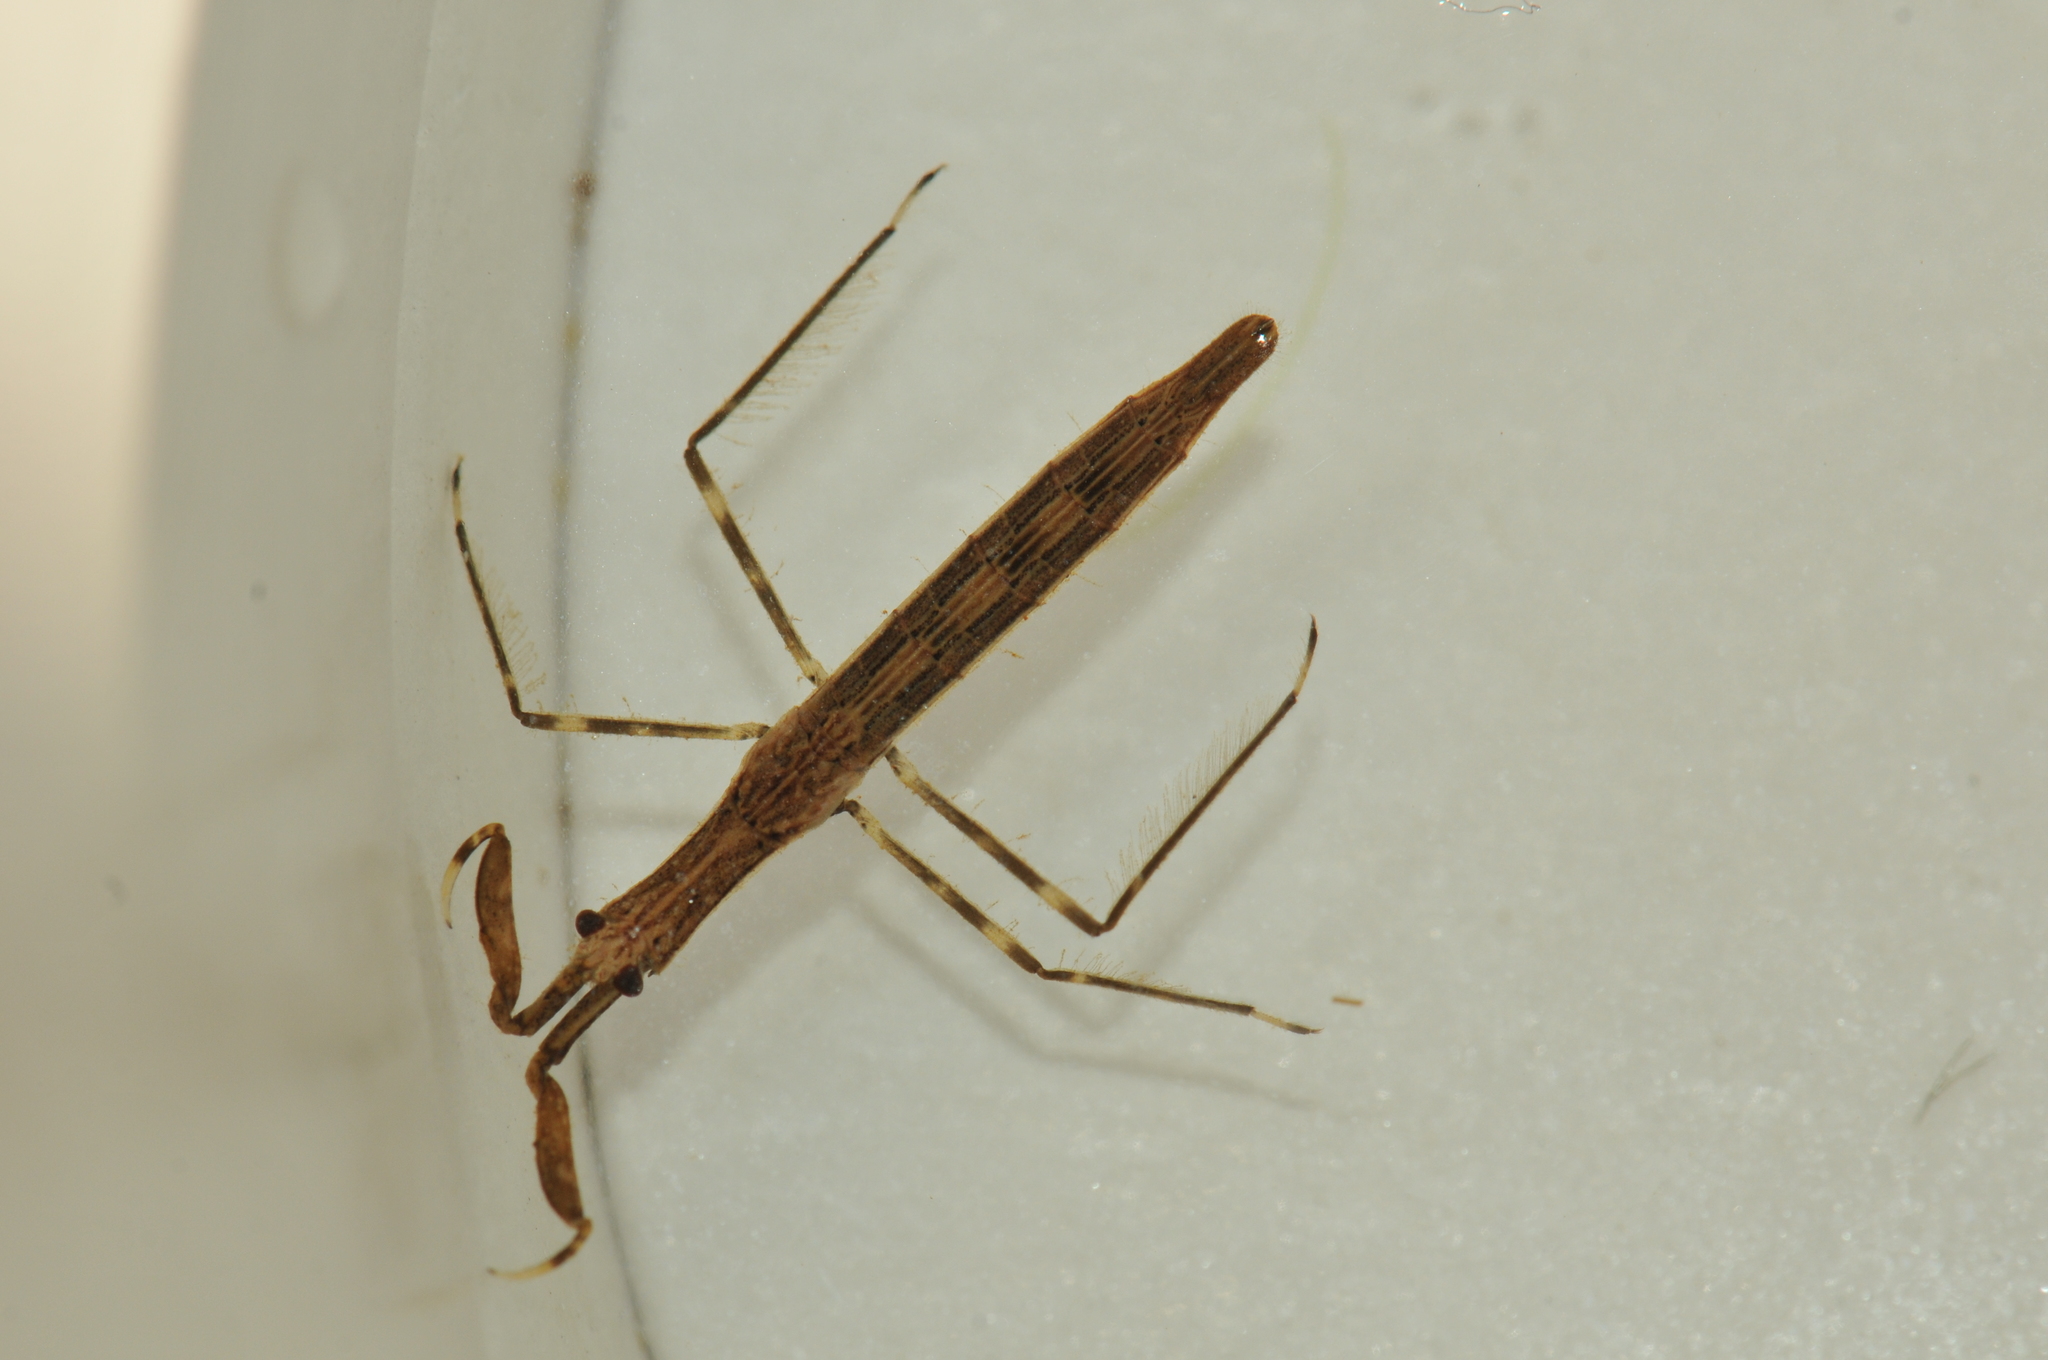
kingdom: Animalia
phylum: Arthropoda
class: Insecta
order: Hemiptera
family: Nepidae
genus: Cercotmetus
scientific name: Cercotmetus brevipes
